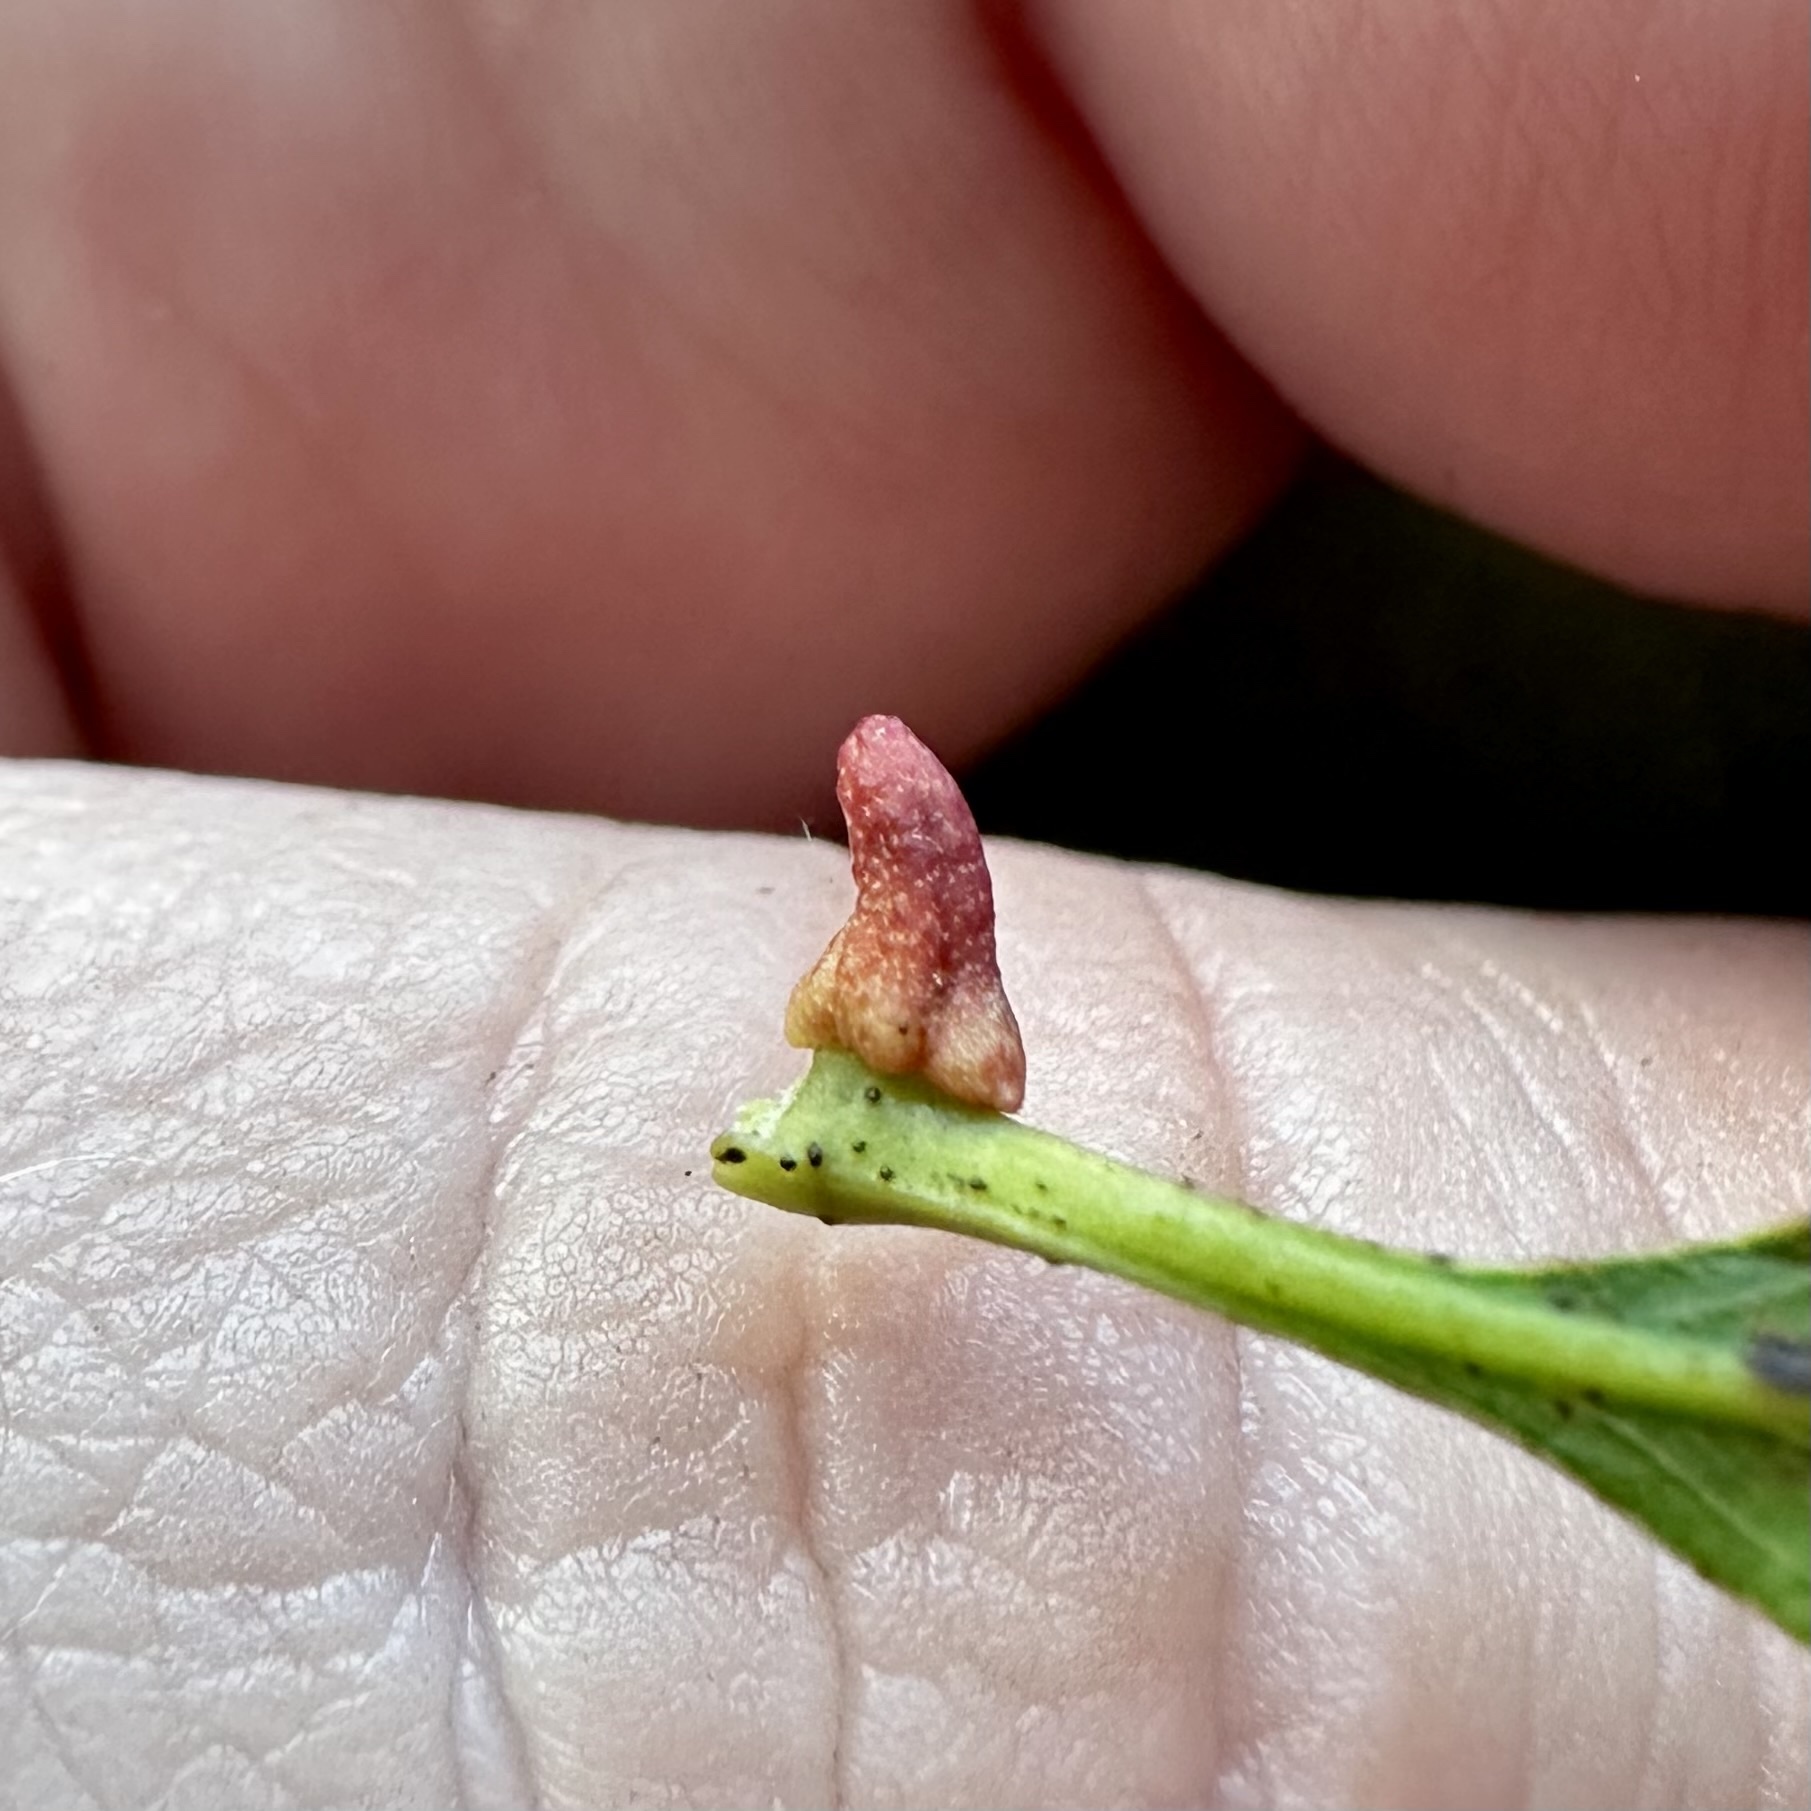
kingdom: Animalia
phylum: Arthropoda
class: Insecta
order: Hymenoptera
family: Cynipidae
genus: Zopheroteras
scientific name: Zopheroteras
